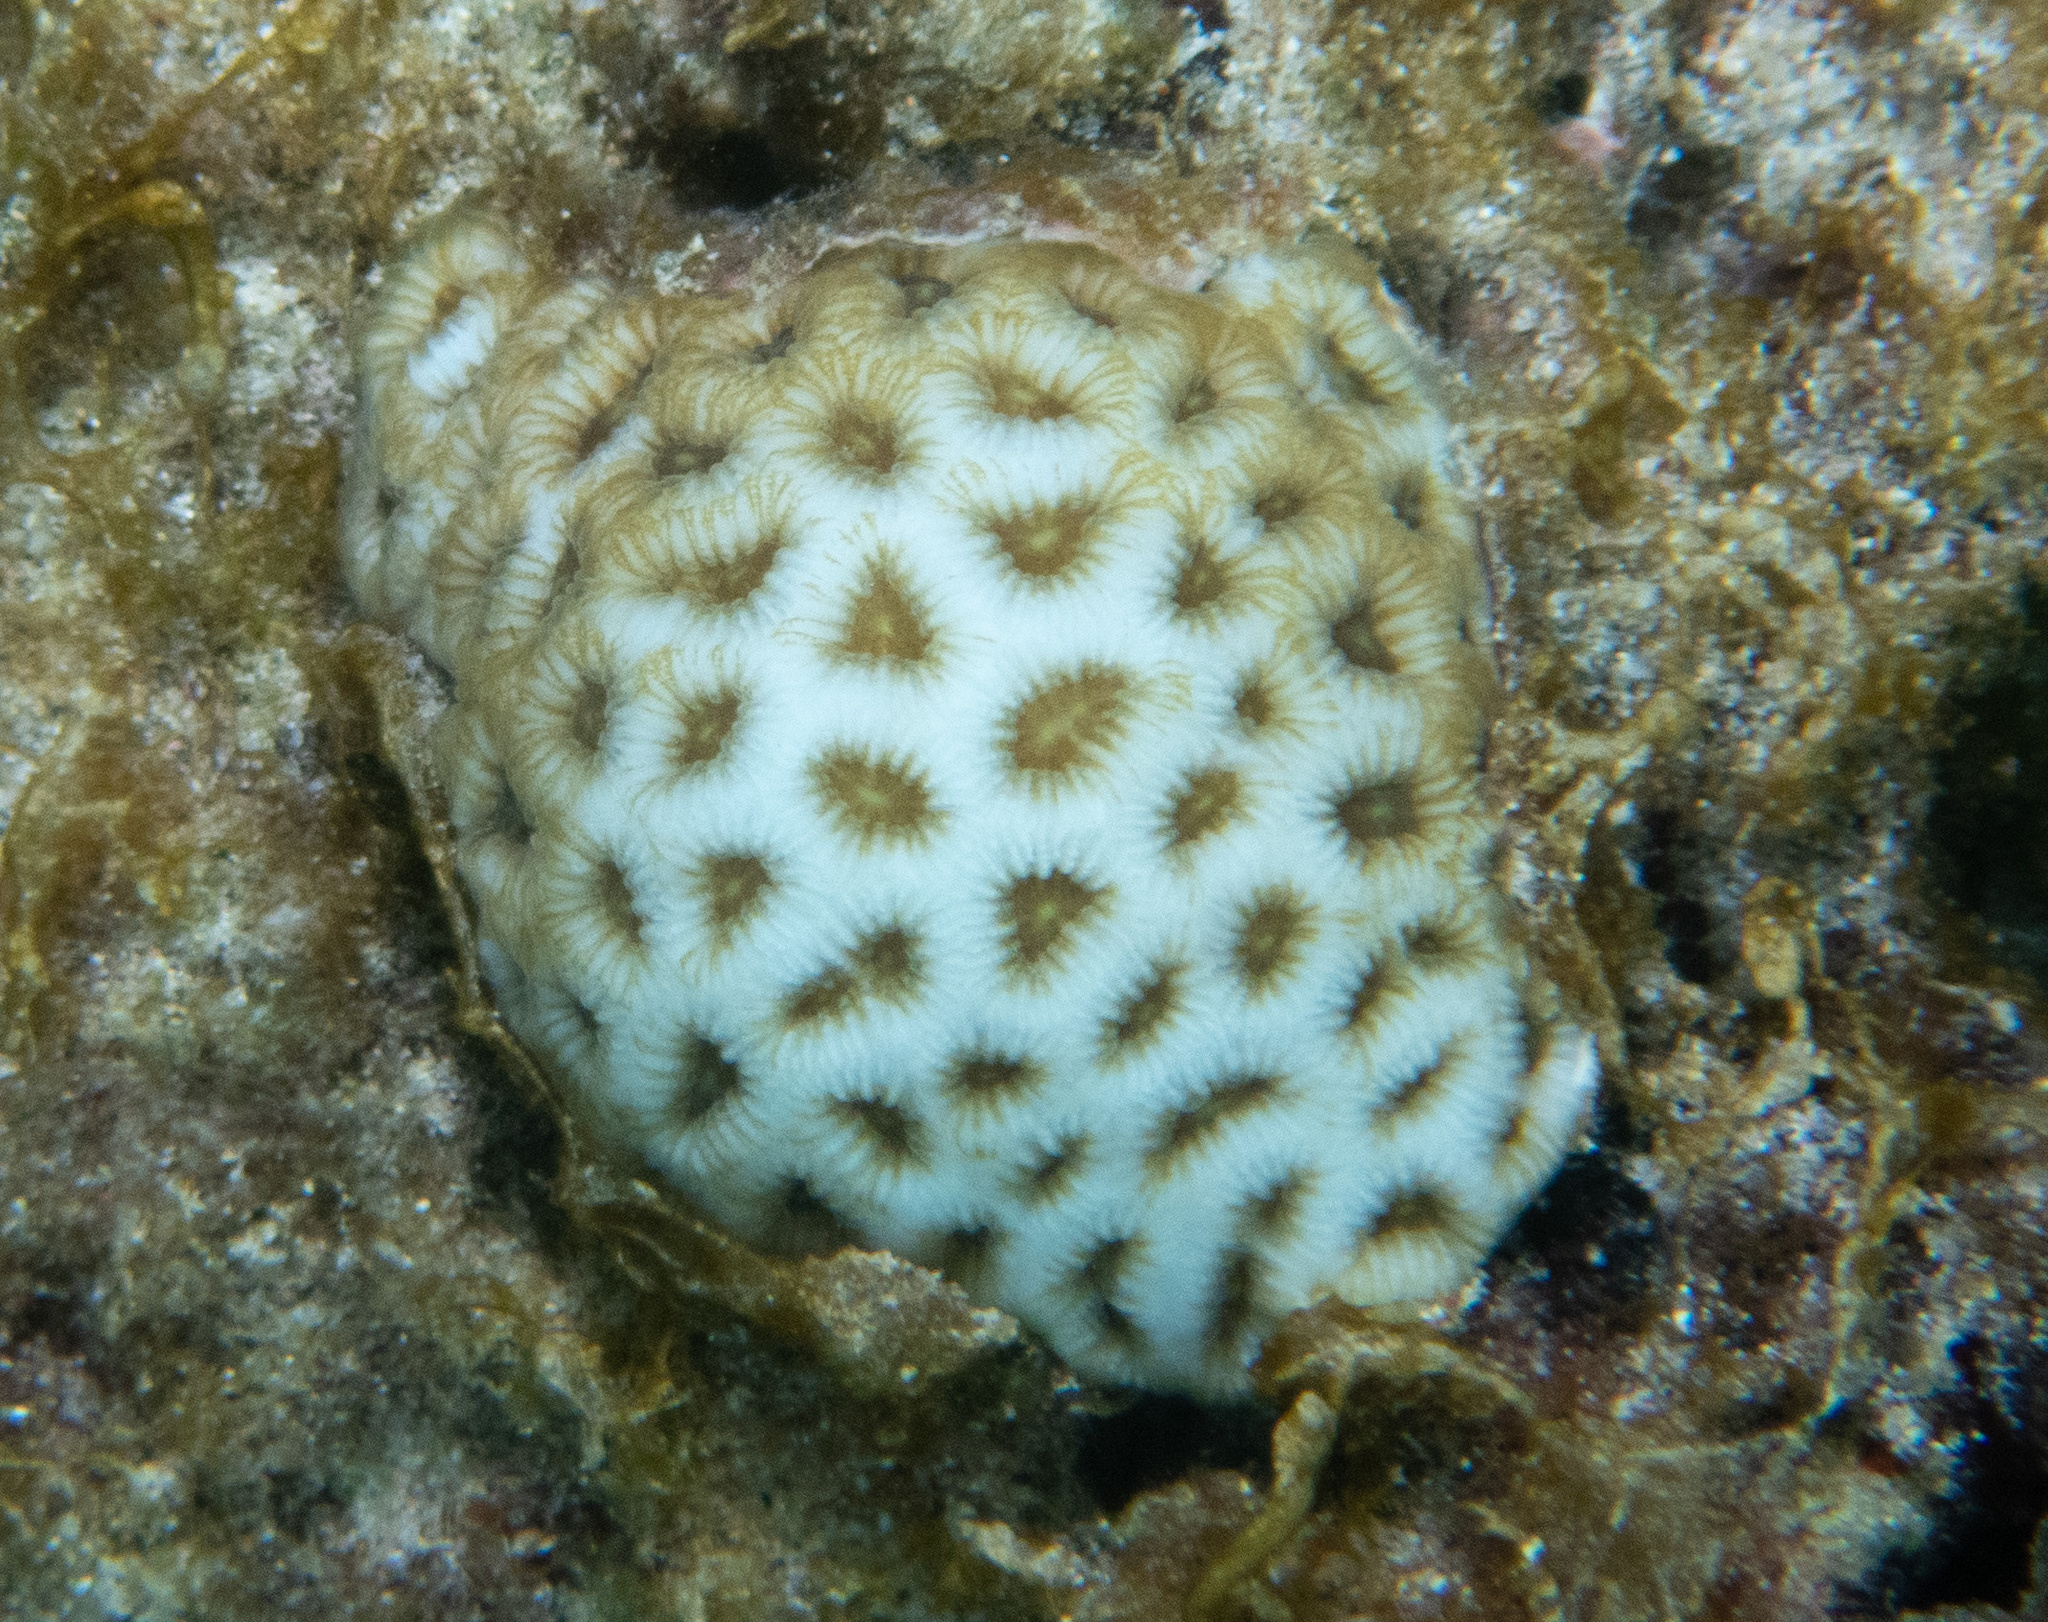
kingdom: Animalia
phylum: Cnidaria
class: Anthozoa
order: Scleractinia
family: Rhizangiidae
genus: Siderastrea
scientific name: Siderastrea radians
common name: Lesser starlet coral
